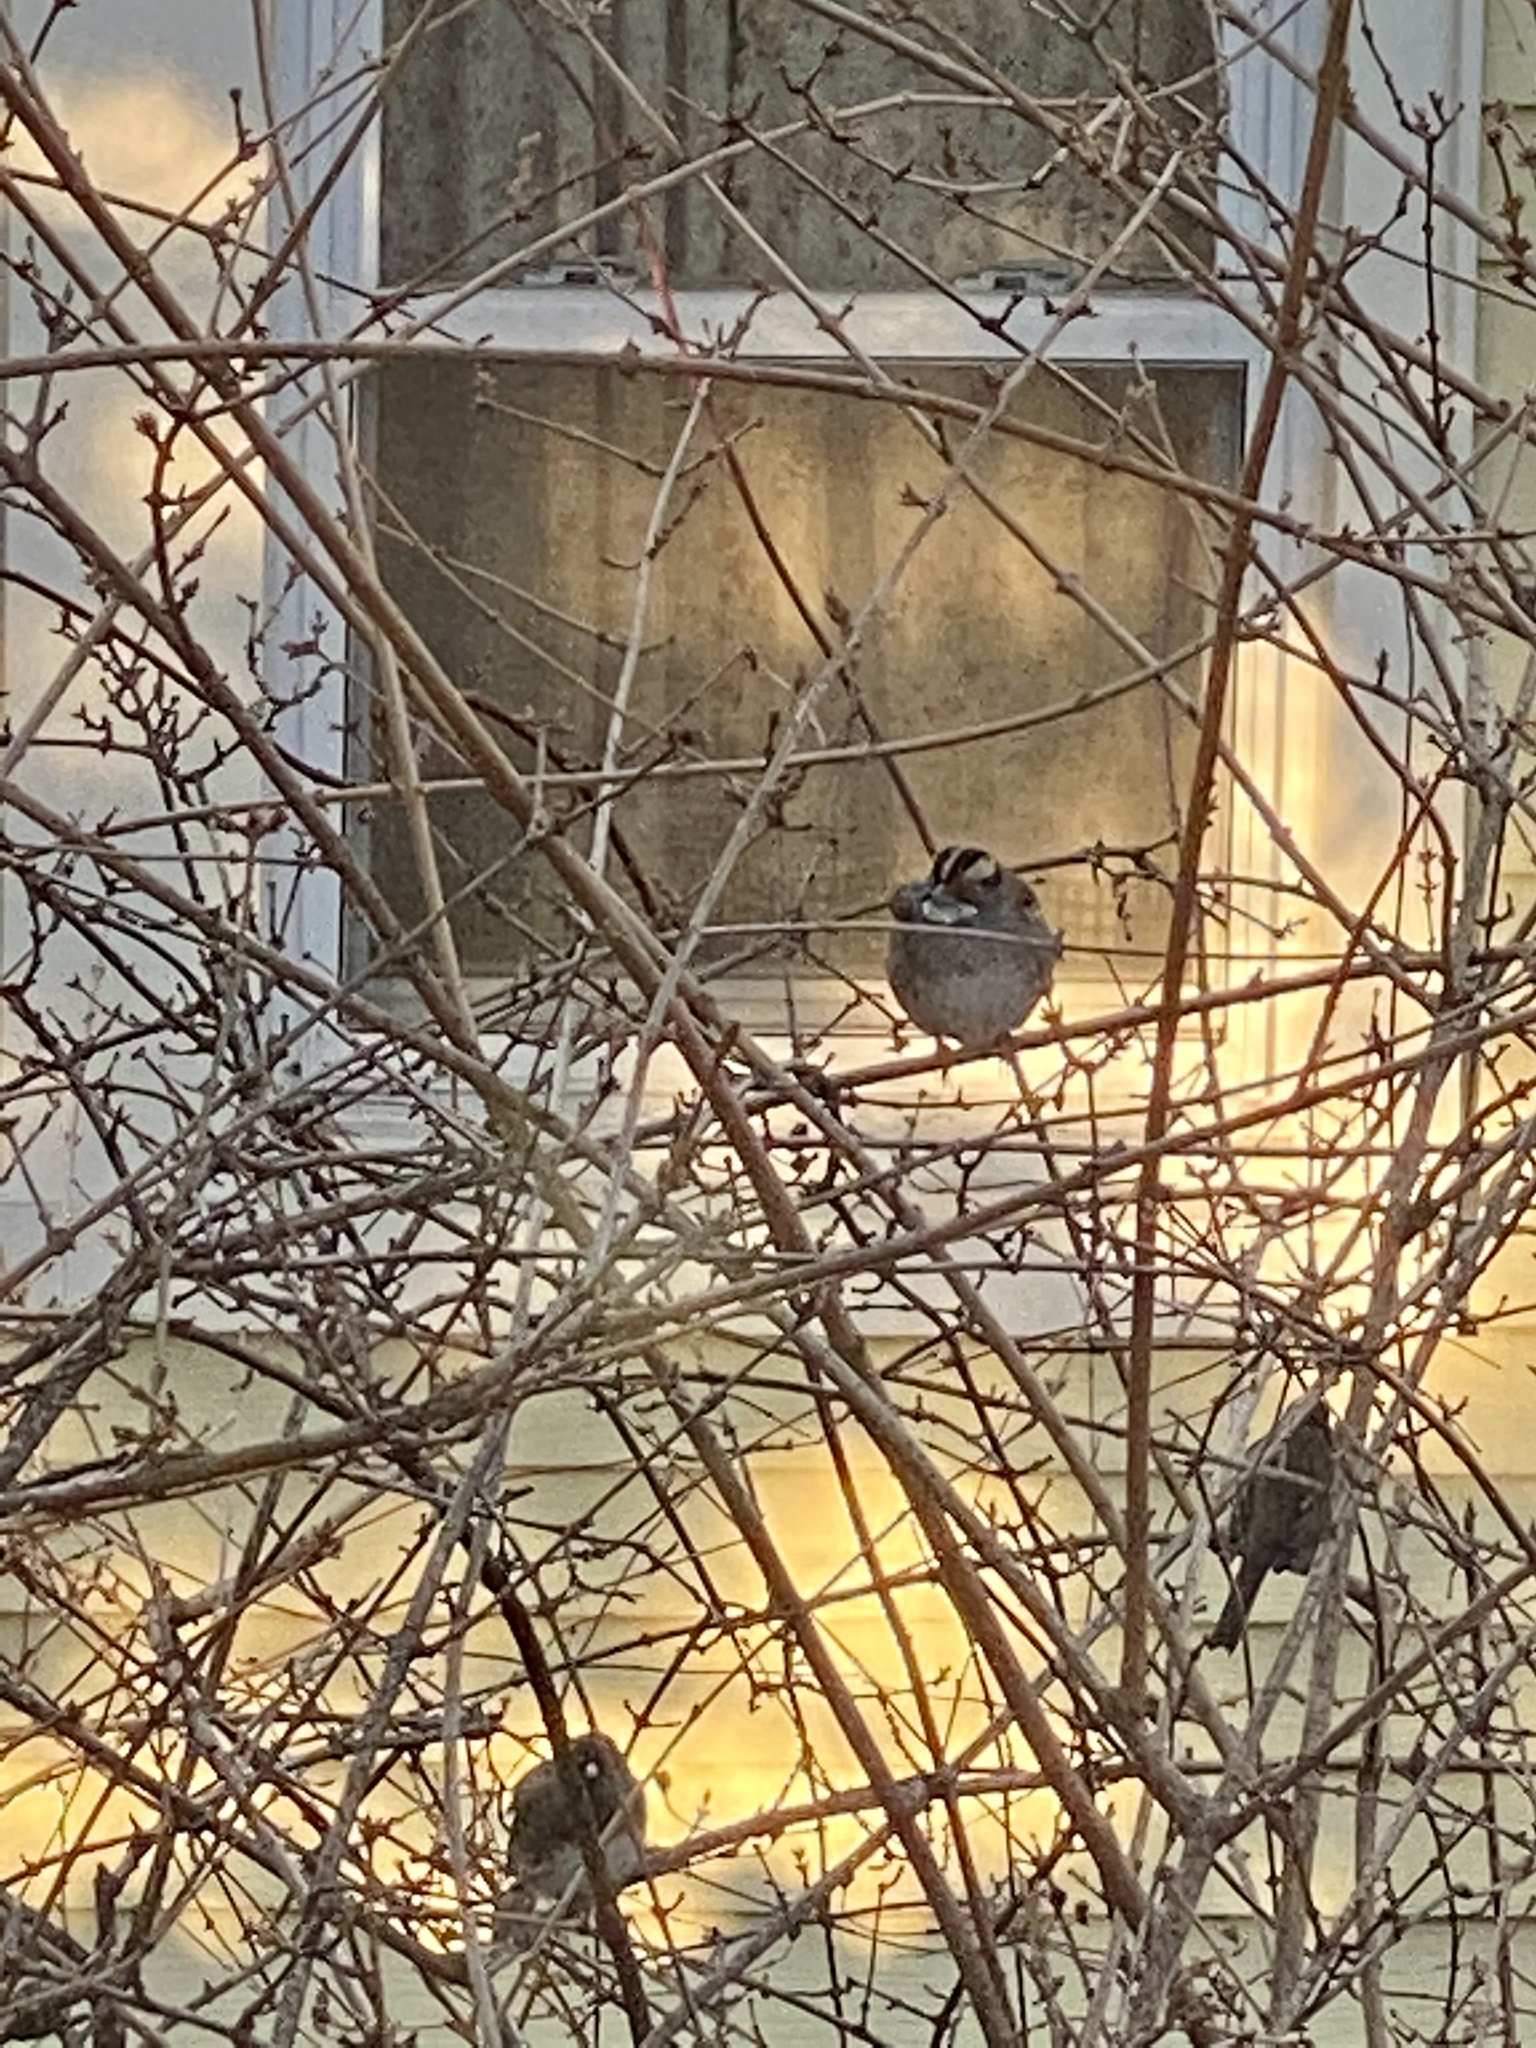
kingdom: Animalia
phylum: Chordata
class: Aves
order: Passeriformes
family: Passerellidae
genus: Zonotrichia
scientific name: Zonotrichia albicollis
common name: White-throated sparrow
